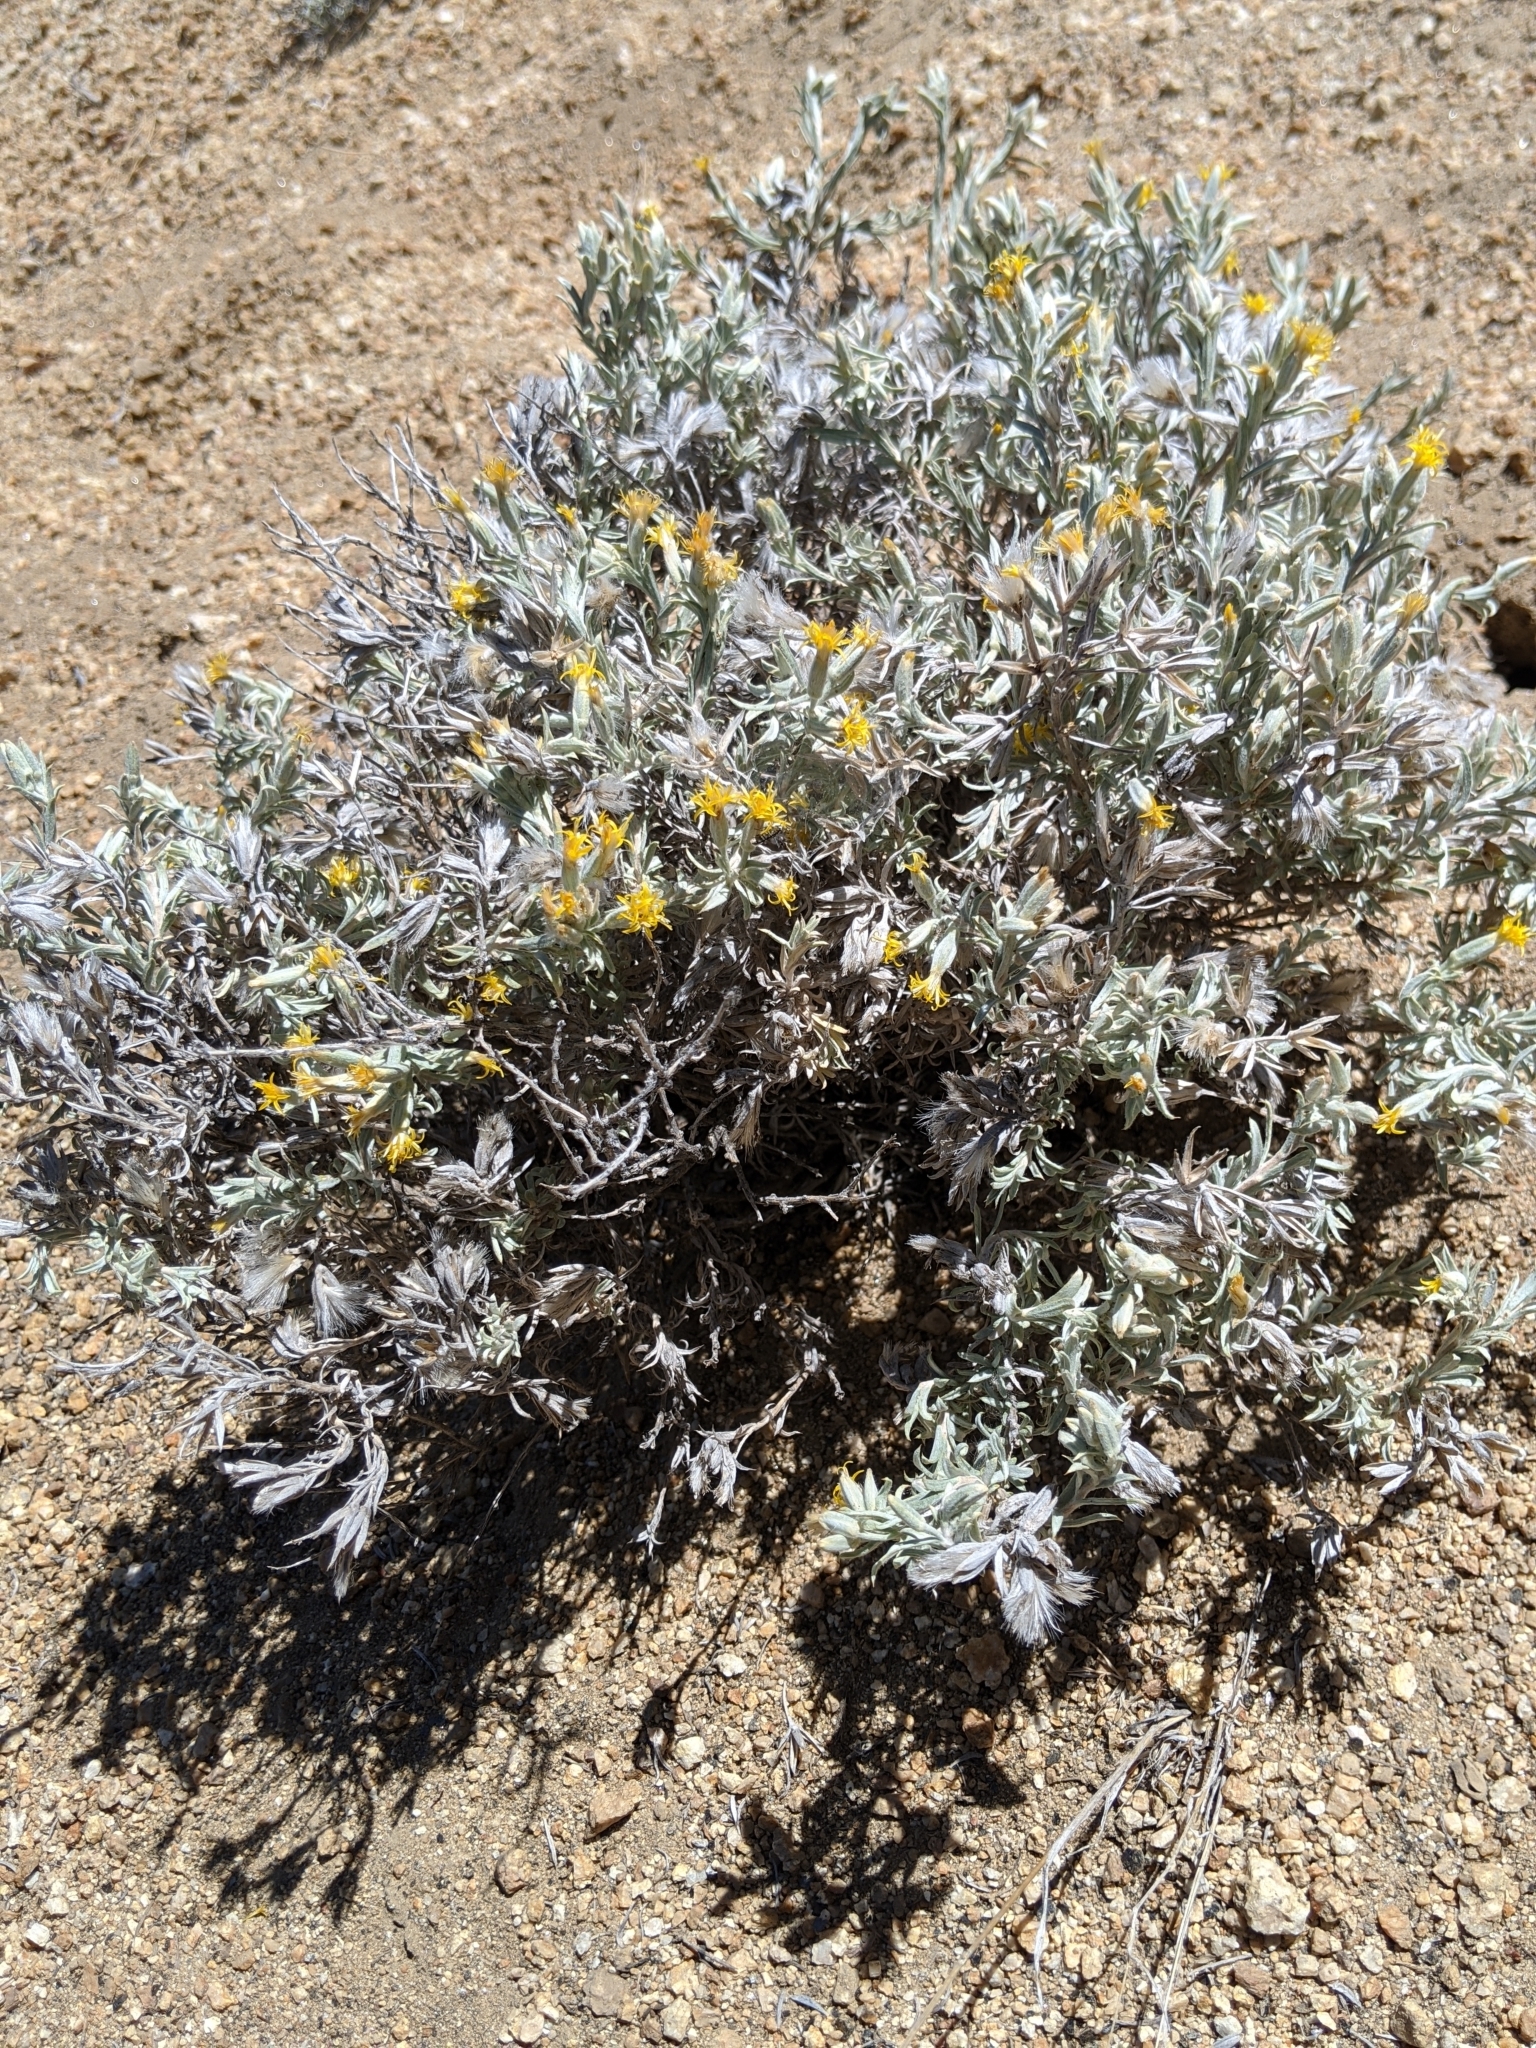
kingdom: Plantae
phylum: Tracheophyta
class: Magnoliopsida
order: Asterales
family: Asteraceae
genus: Tetradymia
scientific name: Tetradymia canescens
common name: Spineless horsebrush
